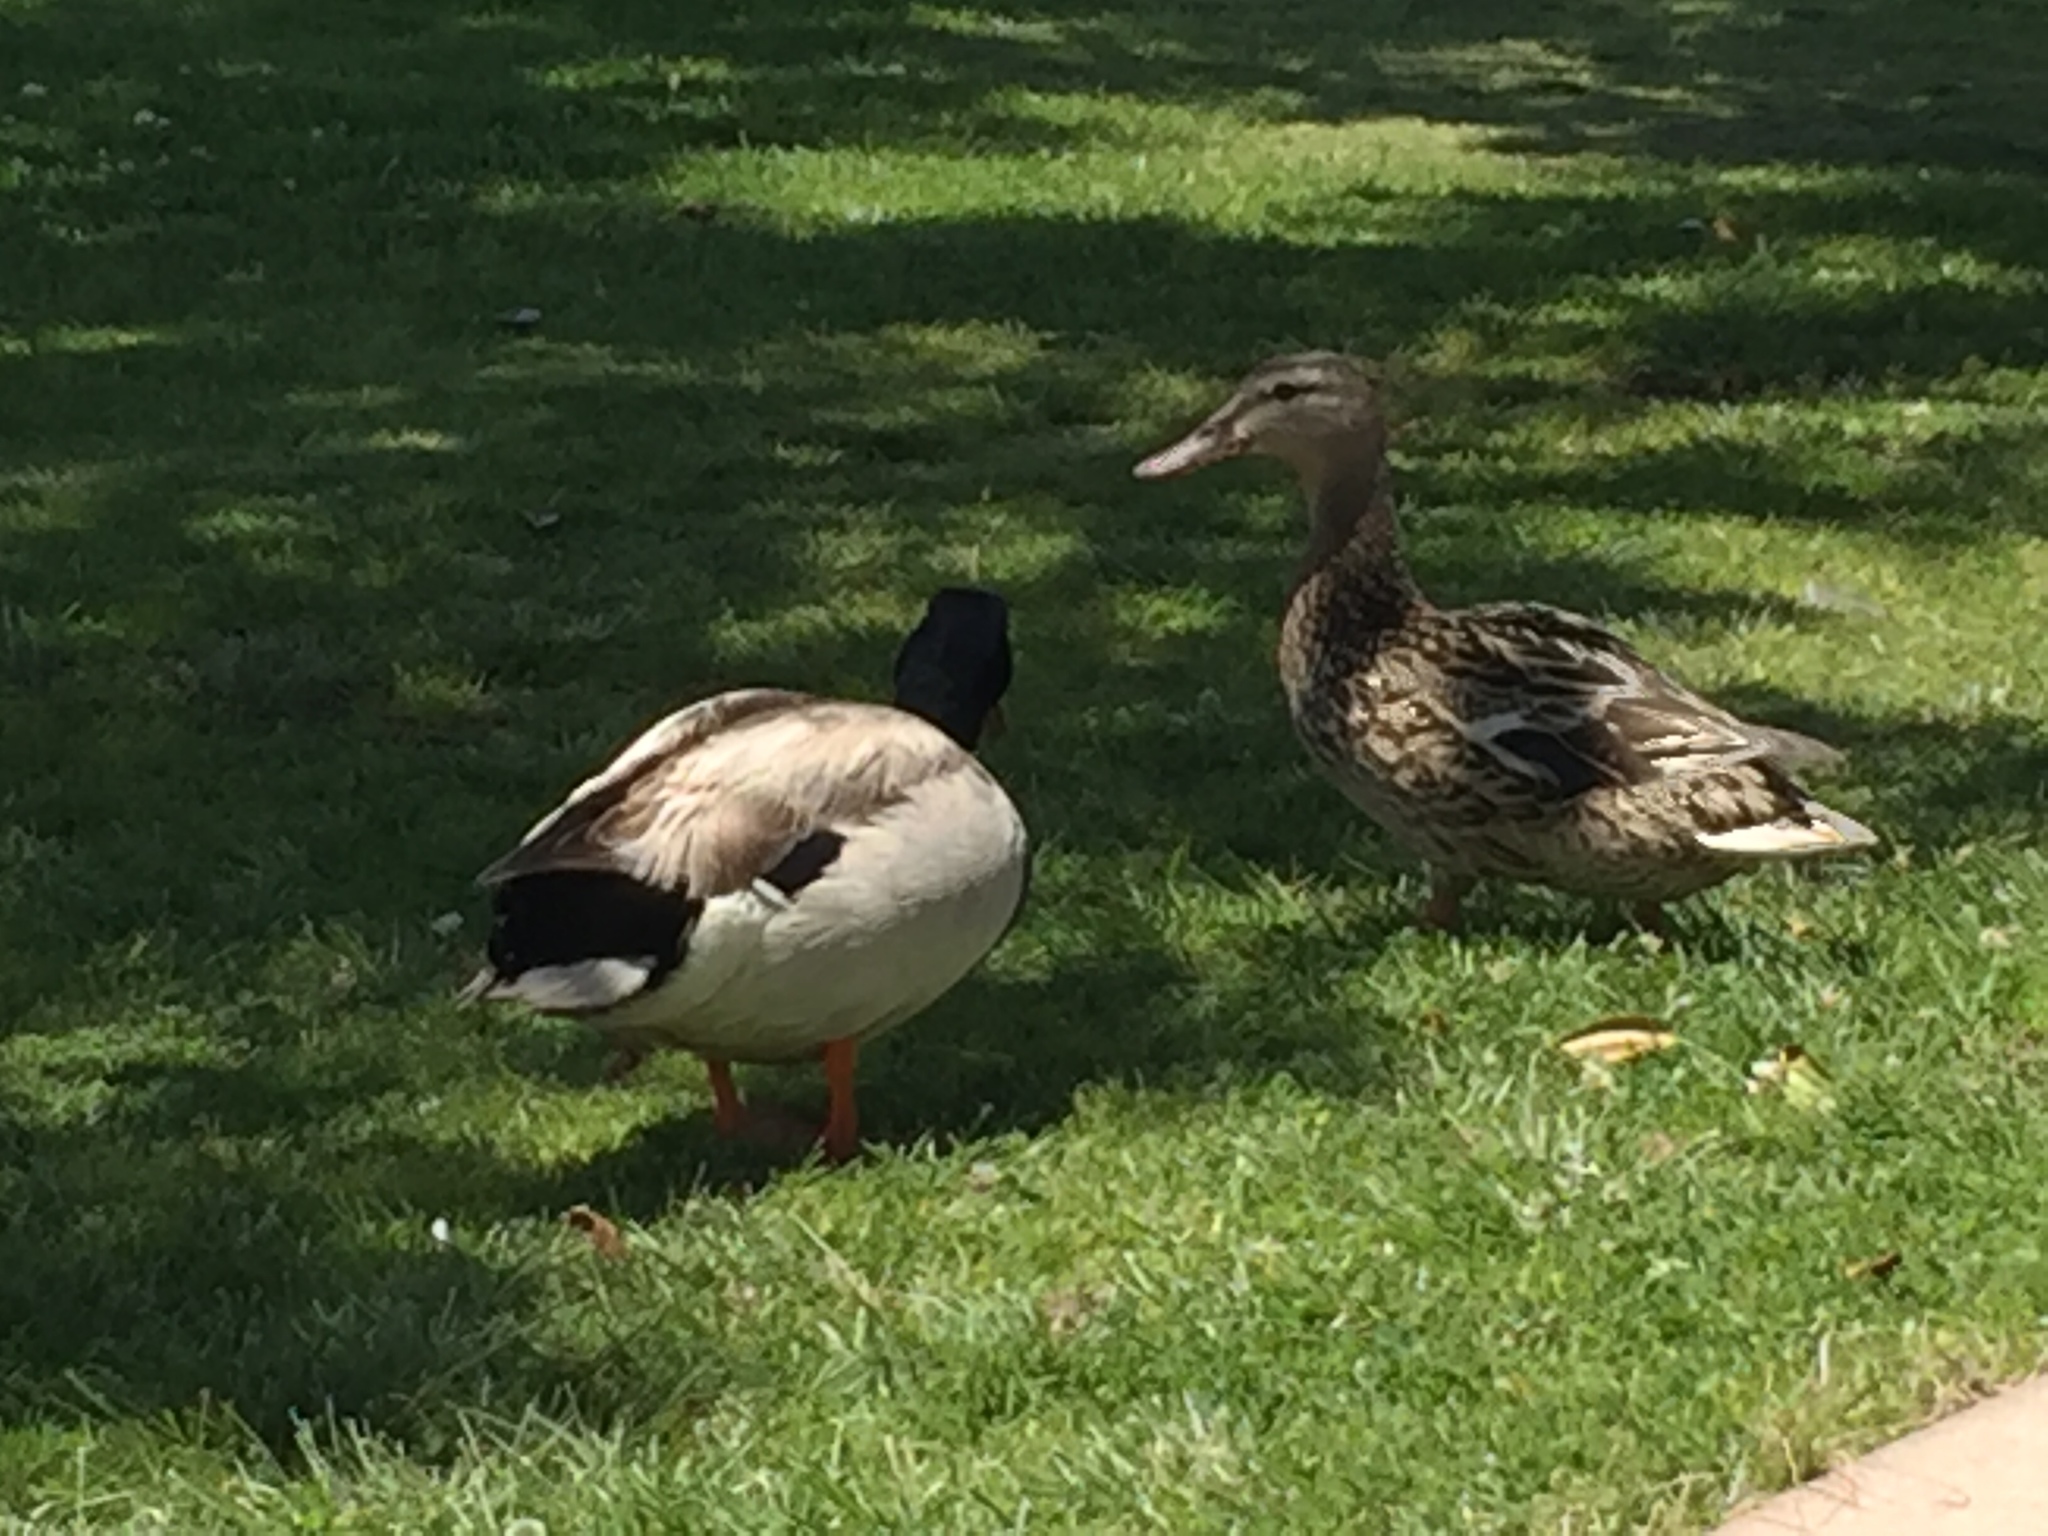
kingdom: Animalia
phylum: Chordata
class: Aves
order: Anseriformes
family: Anatidae
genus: Anas
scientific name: Anas platyrhynchos
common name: Mallard
